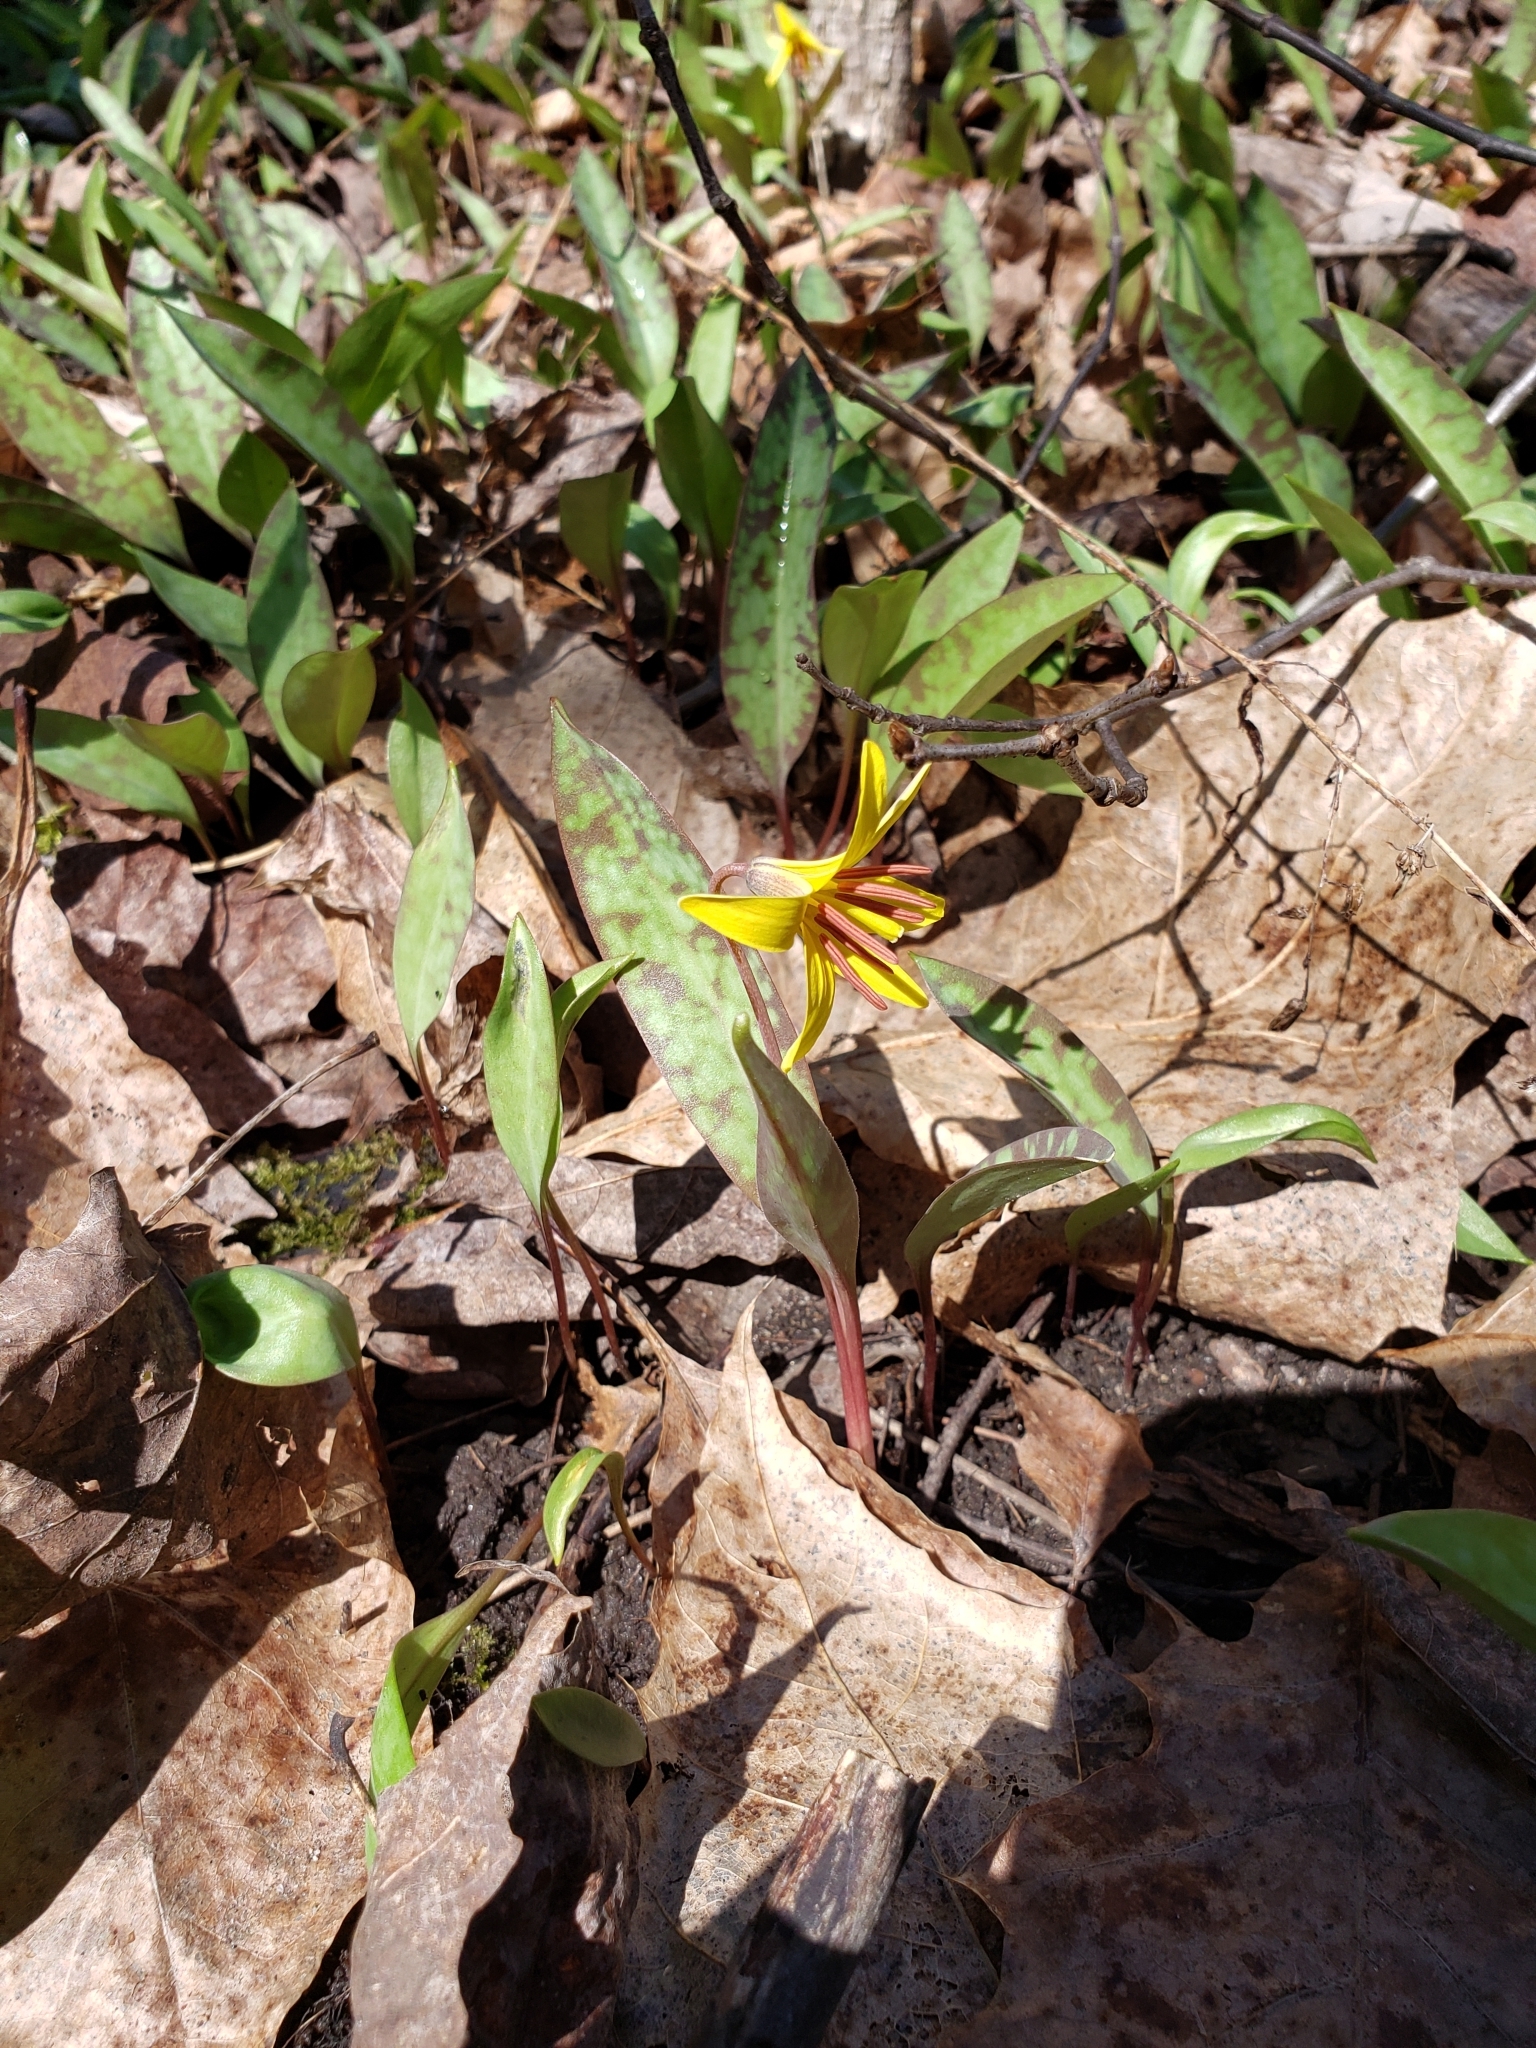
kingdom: Plantae
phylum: Tracheophyta
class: Liliopsida
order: Liliales
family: Liliaceae
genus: Erythronium
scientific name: Erythronium americanum
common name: Yellow adder's-tongue
